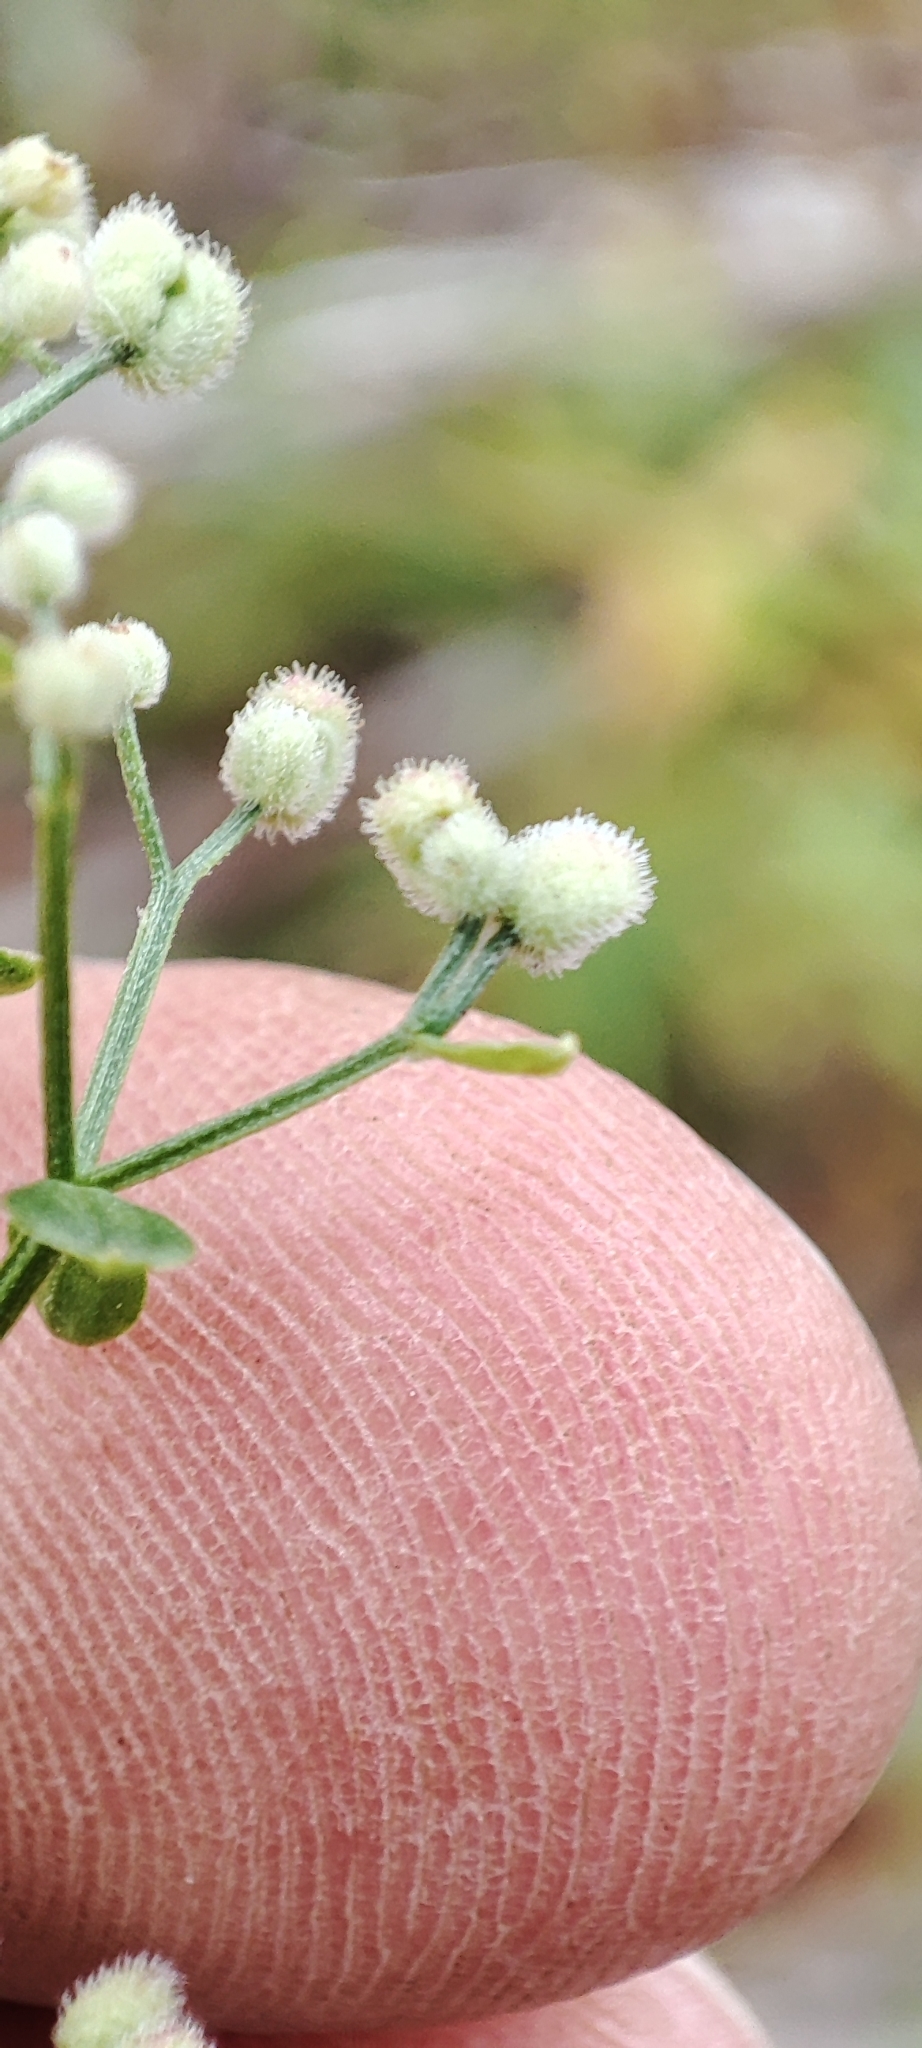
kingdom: Plantae
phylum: Tracheophyta
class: Magnoliopsida
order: Gentianales
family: Rubiaceae
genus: Galium
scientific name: Galium boreale
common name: Northern bedstraw
